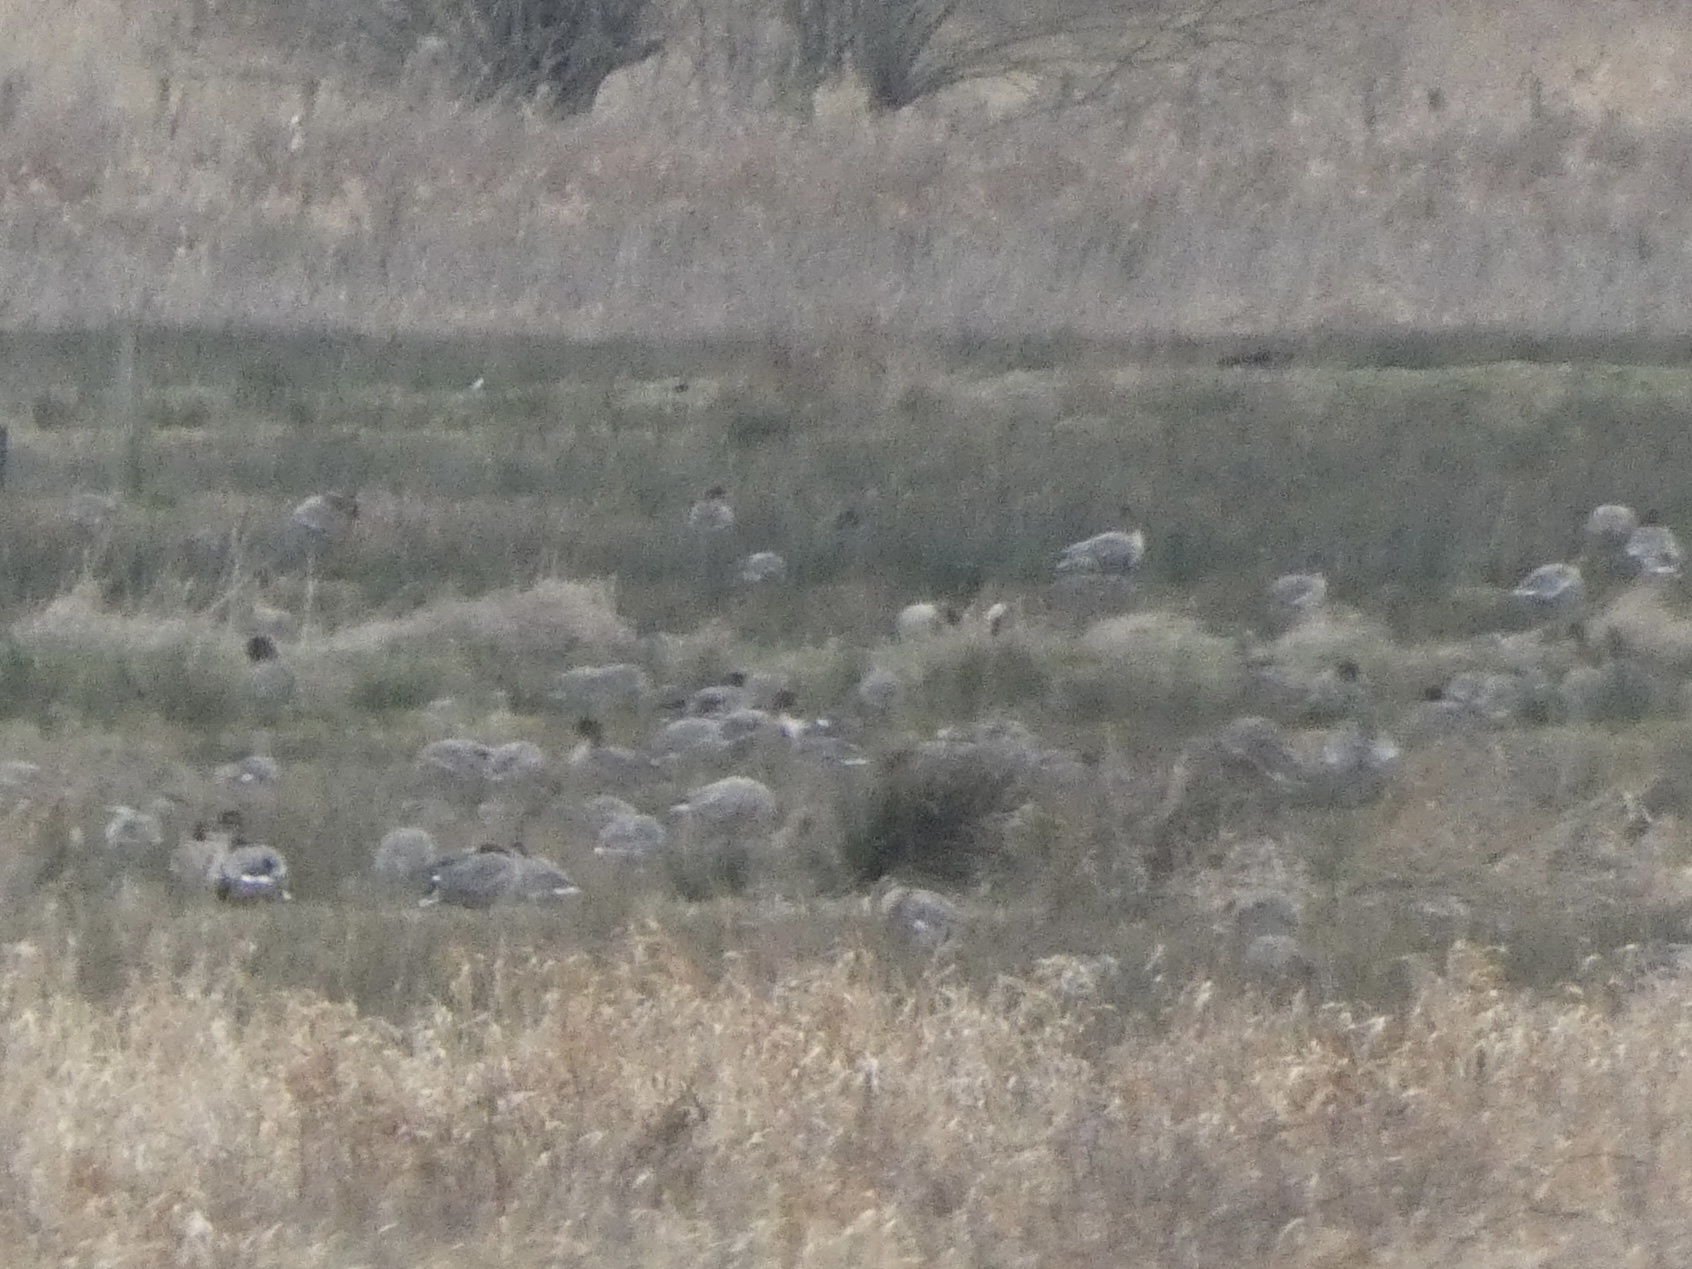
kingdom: Animalia
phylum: Chordata
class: Aves
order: Anseriformes
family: Anatidae
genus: Anser
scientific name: Anser brachyrhynchus
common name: Pink-footed goose
